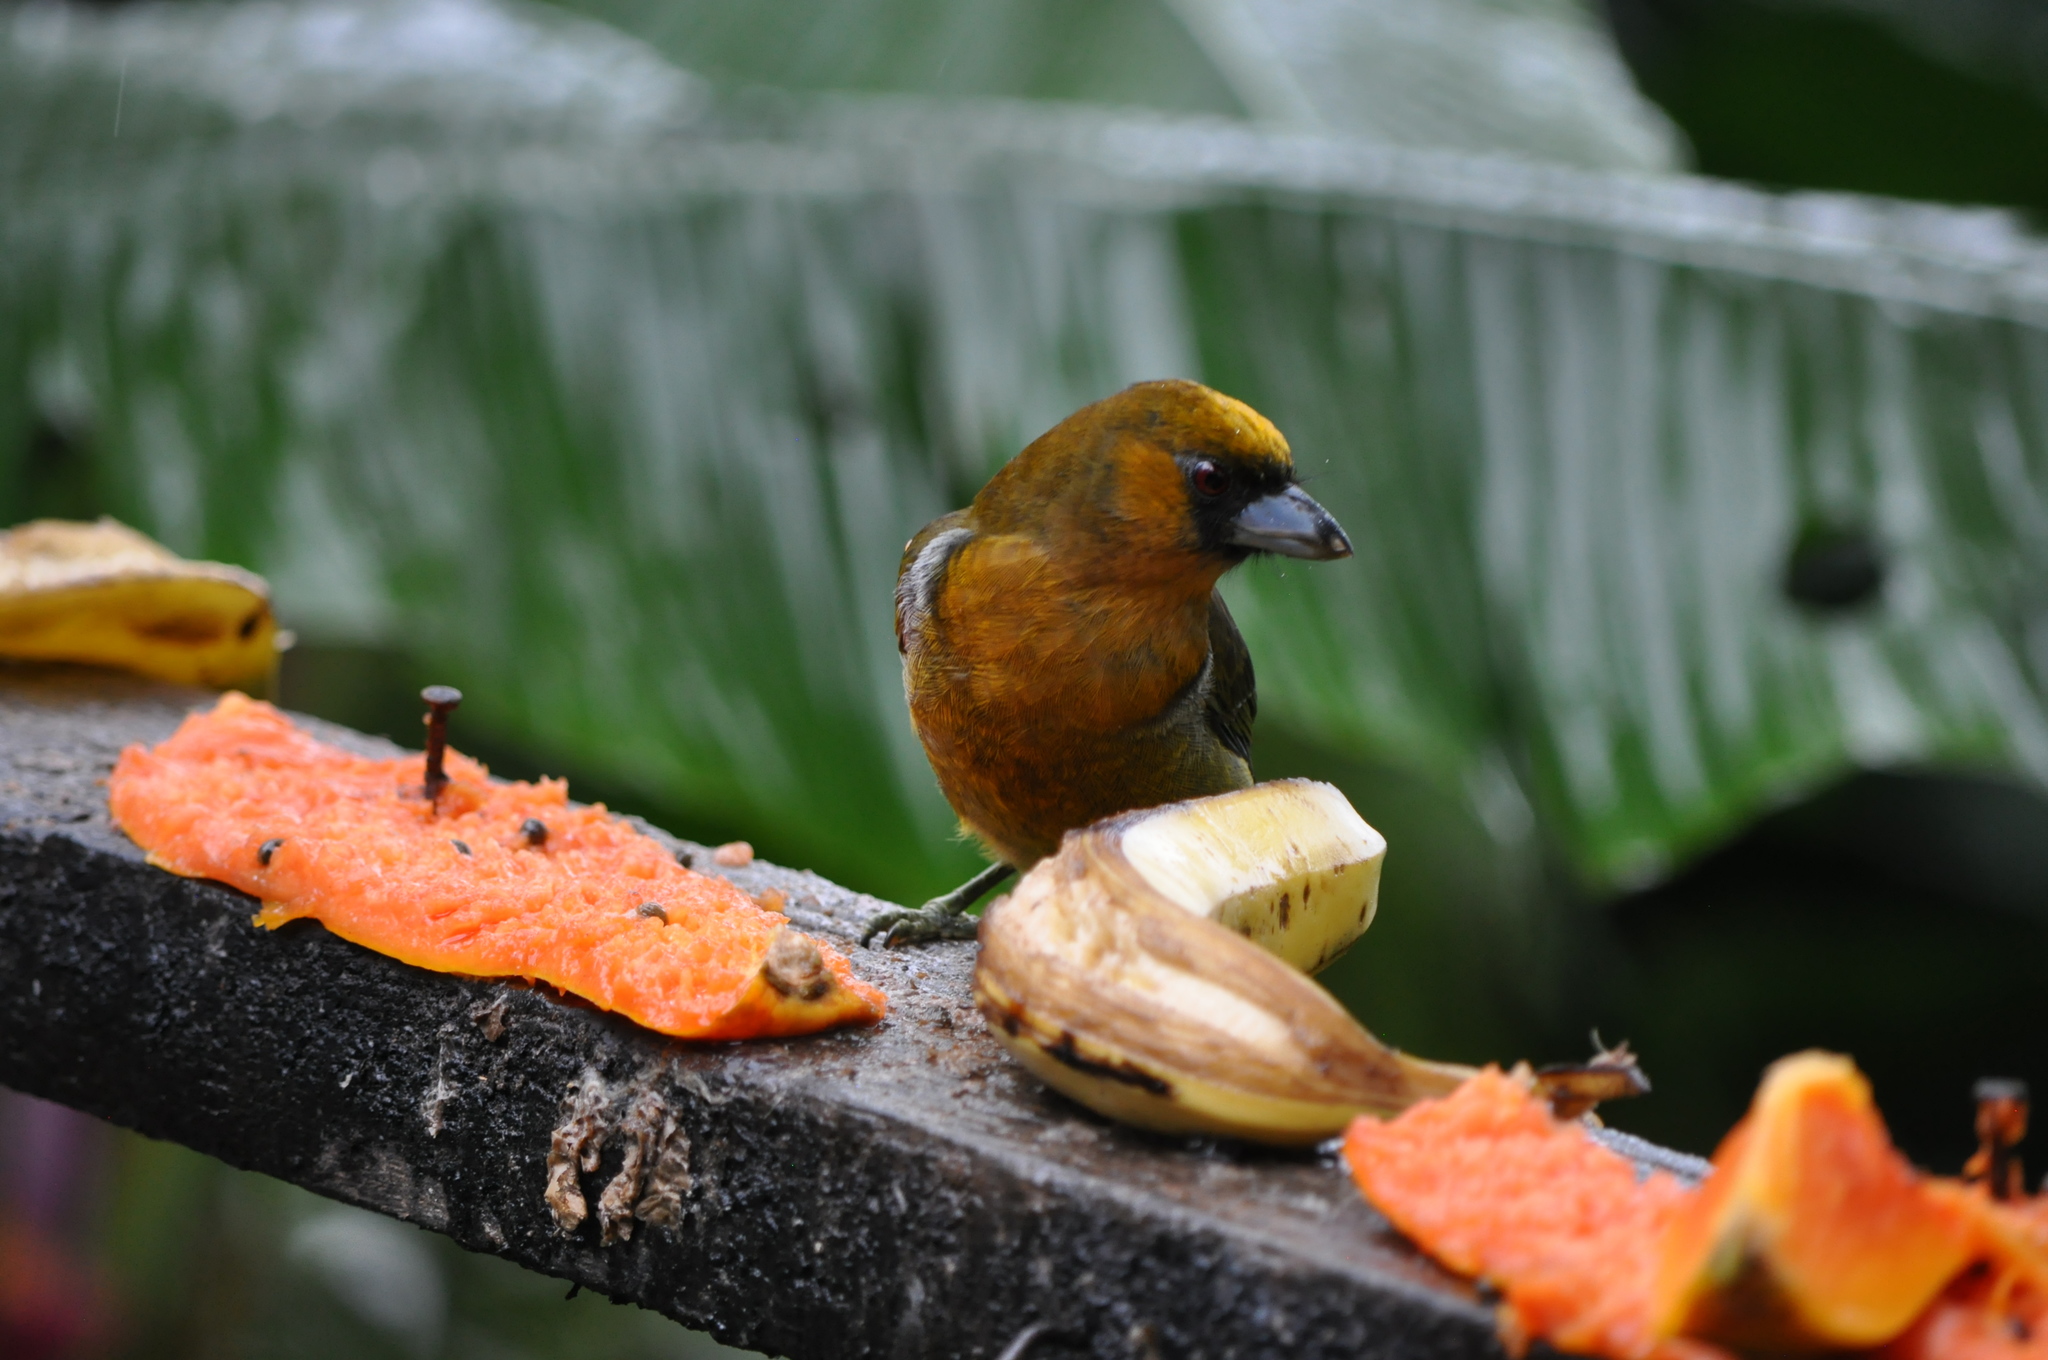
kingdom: Animalia
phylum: Chordata
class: Aves
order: Piciformes
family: Semnornithidae
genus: Semnornis
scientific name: Semnornis frantzii
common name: Prong-billed barbet
